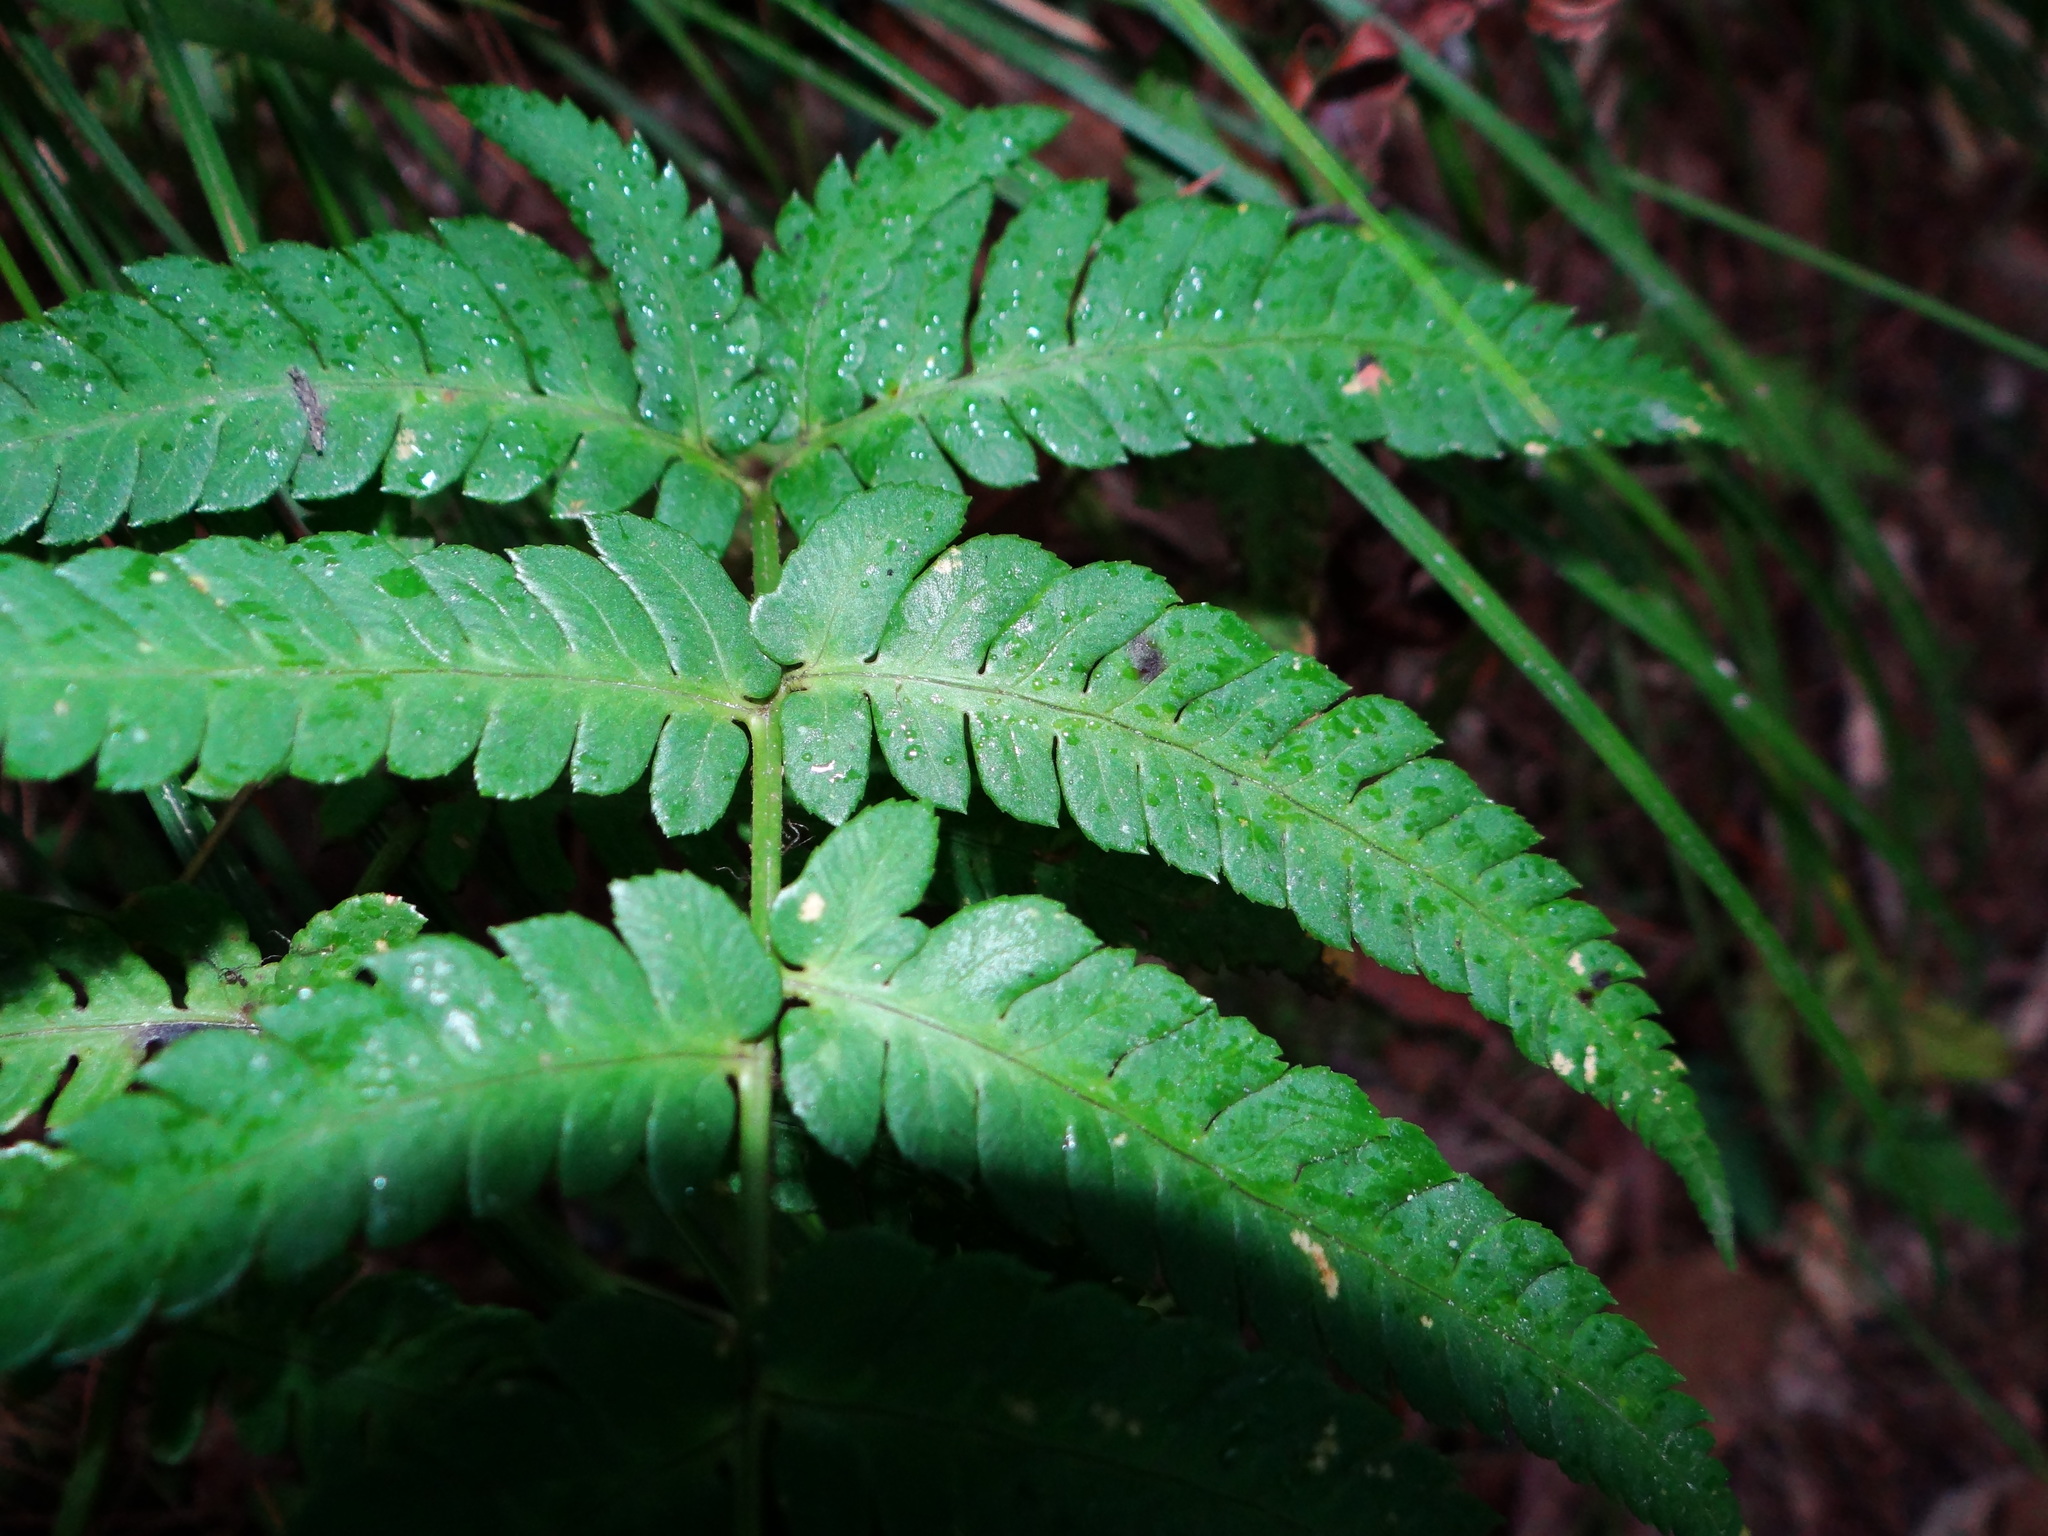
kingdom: Plantae
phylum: Tracheophyta
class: Polypodiopsida
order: Polypodiales
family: Dryopteridaceae
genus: Dryopteris
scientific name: Dryopteris varia
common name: Japanese holly fern
